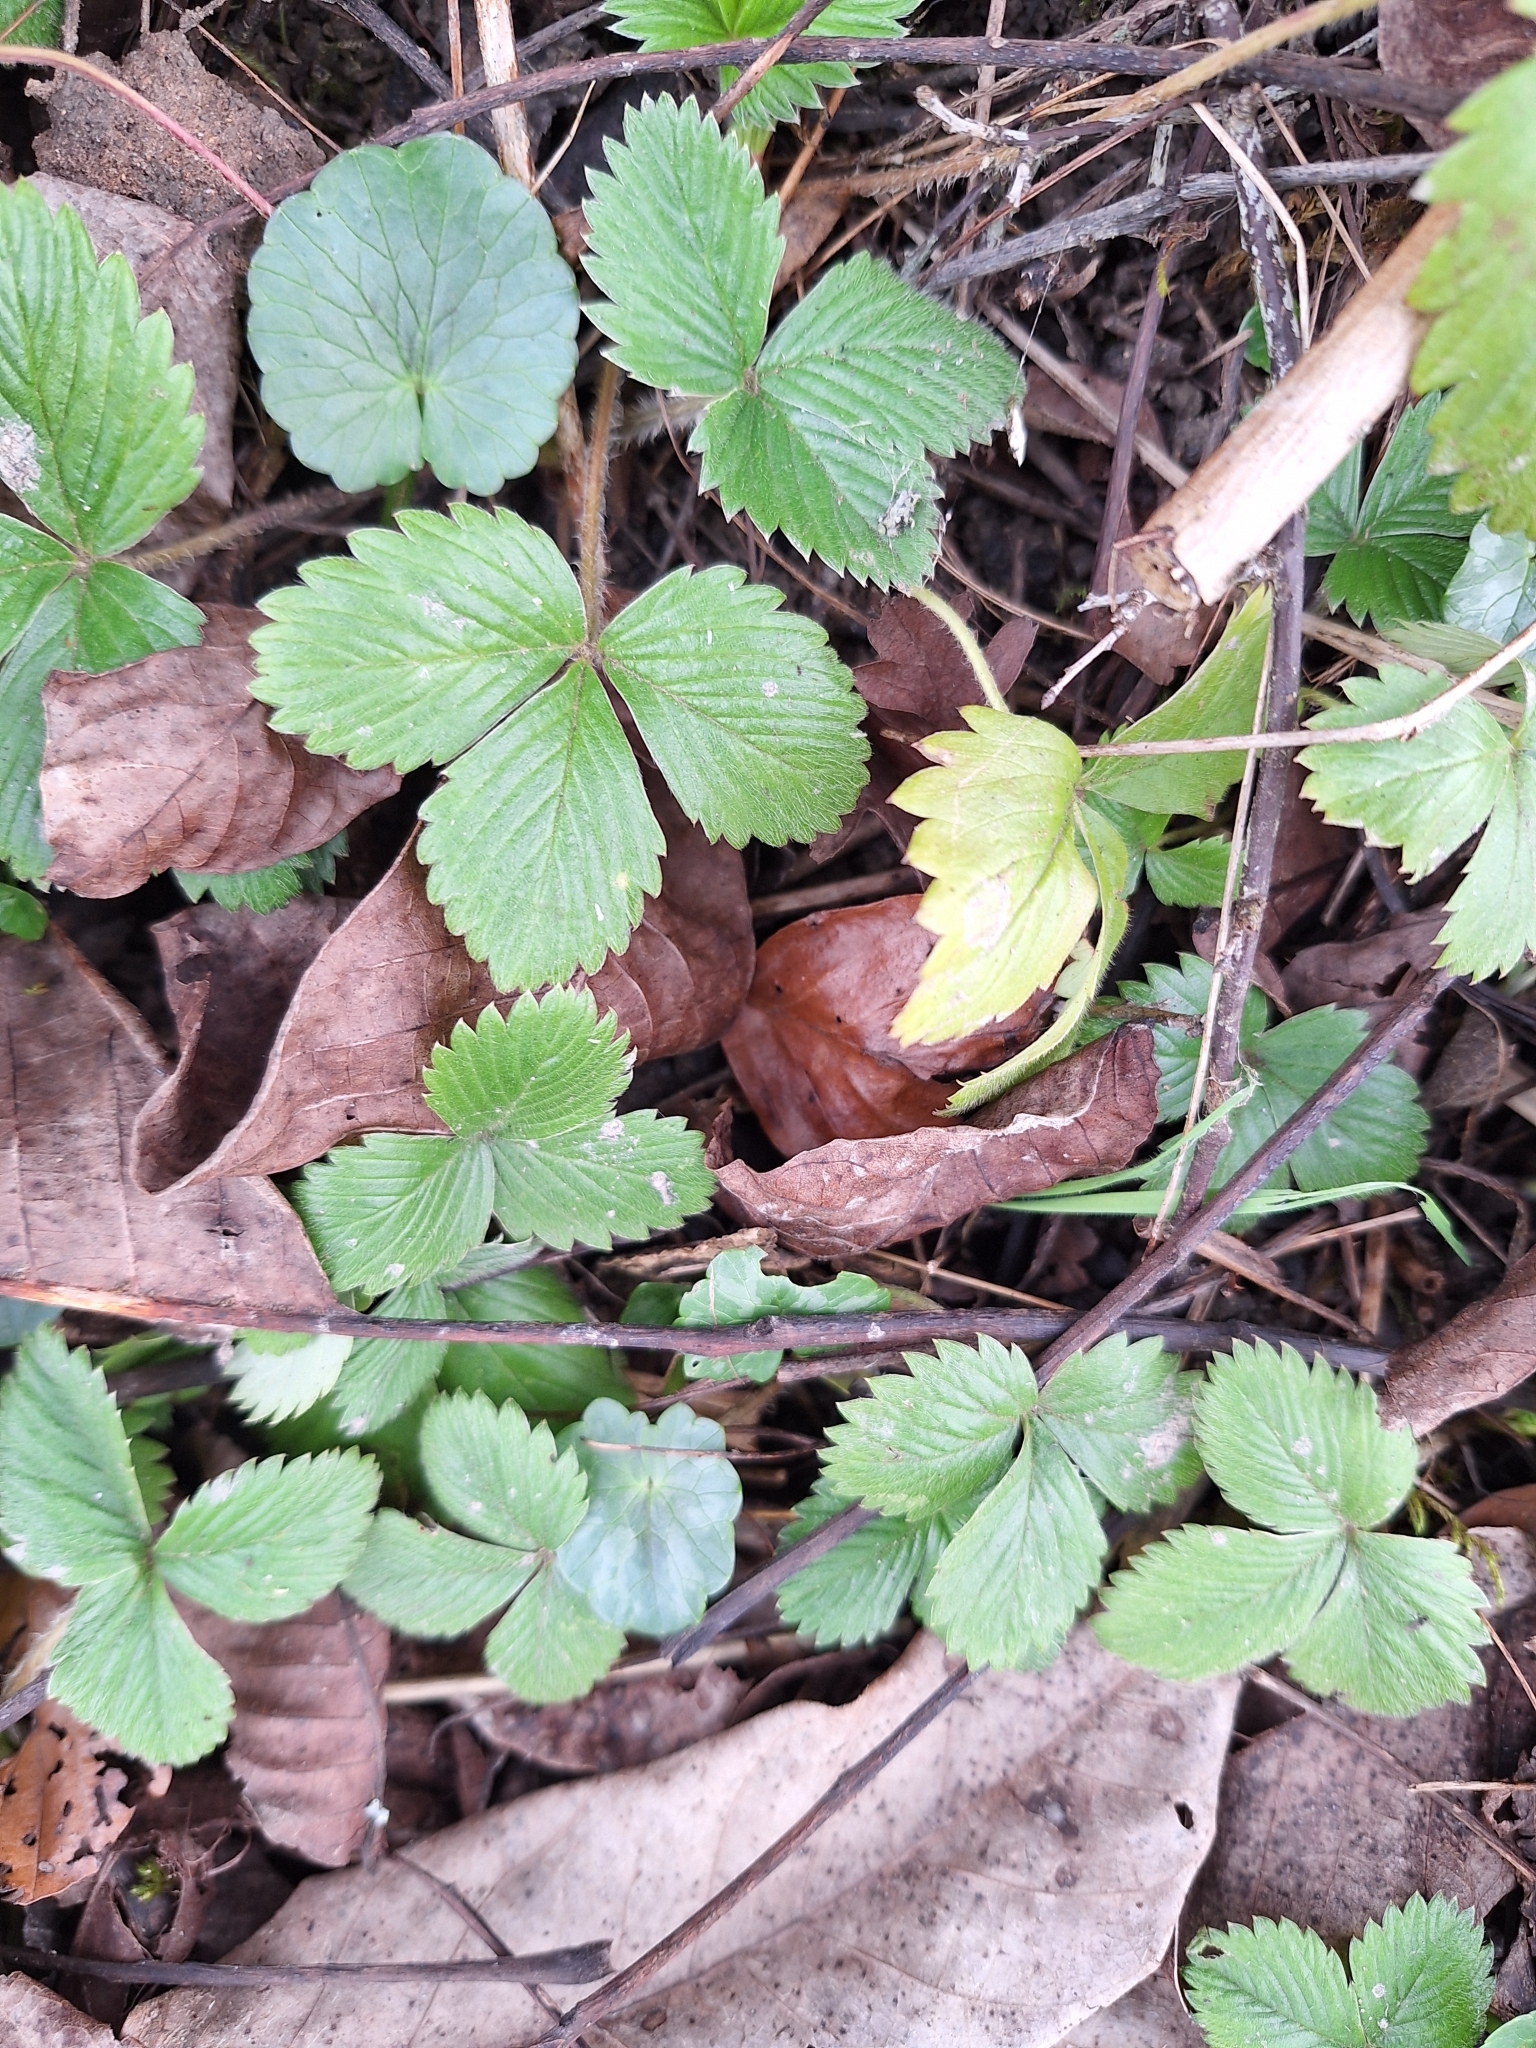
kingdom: Plantae
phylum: Tracheophyta
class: Magnoliopsida
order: Rosales
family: Rosaceae
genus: Fragaria
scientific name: Fragaria vesca
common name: Wild strawberry
